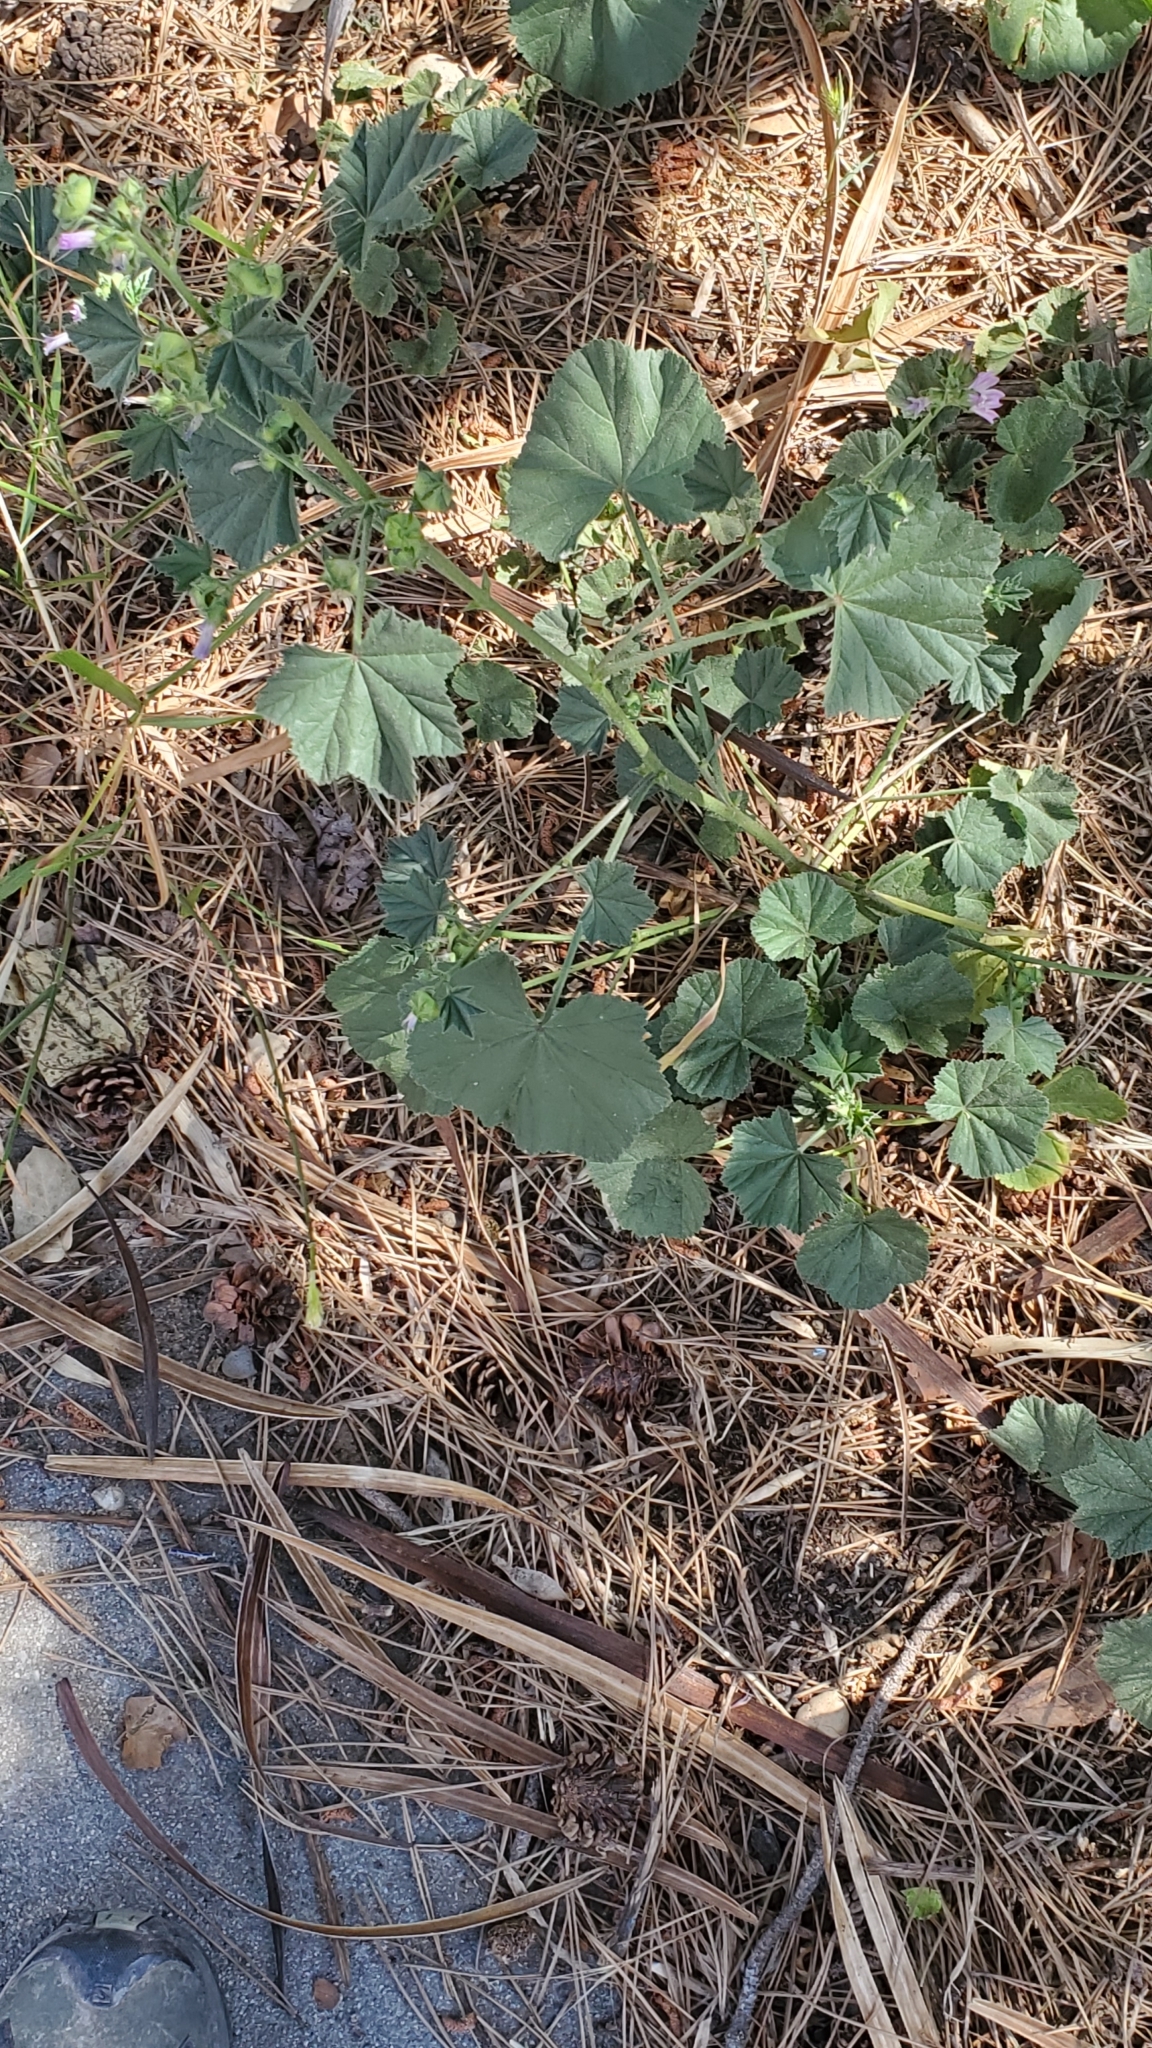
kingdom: Plantae
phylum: Tracheophyta
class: Magnoliopsida
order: Malvales
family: Malvaceae
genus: Malva
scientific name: Malva nicaeensis
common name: French mallow
